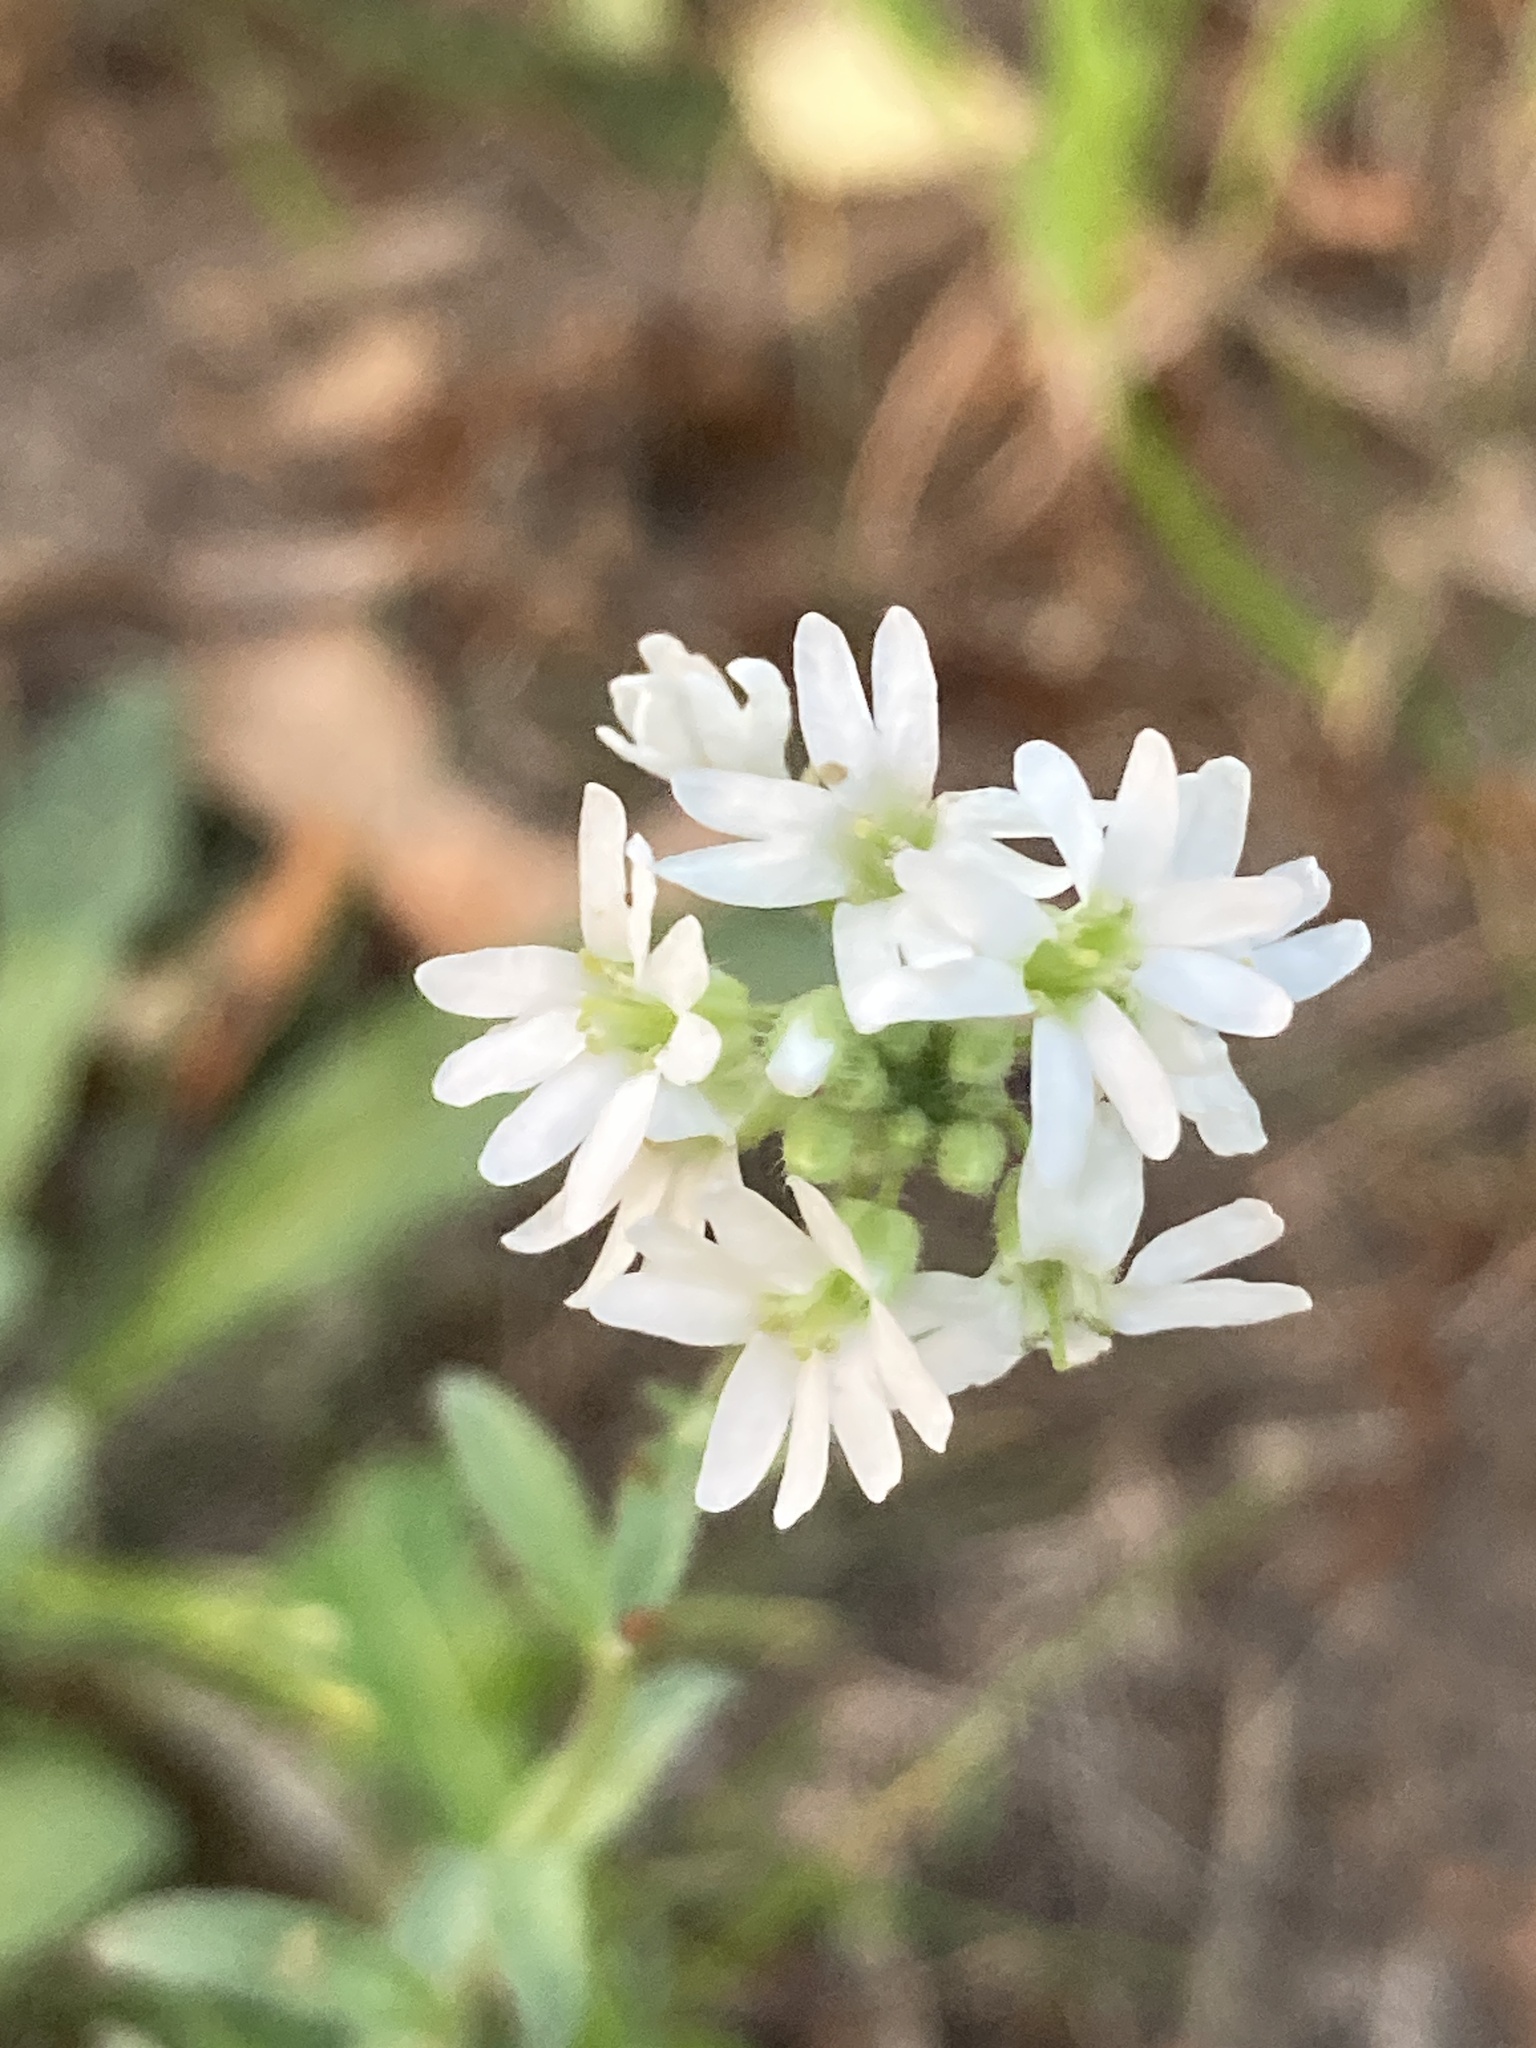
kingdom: Plantae
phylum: Tracheophyta
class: Magnoliopsida
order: Brassicales
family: Brassicaceae
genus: Berteroa
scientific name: Berteroa incana
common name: Hoary alison
